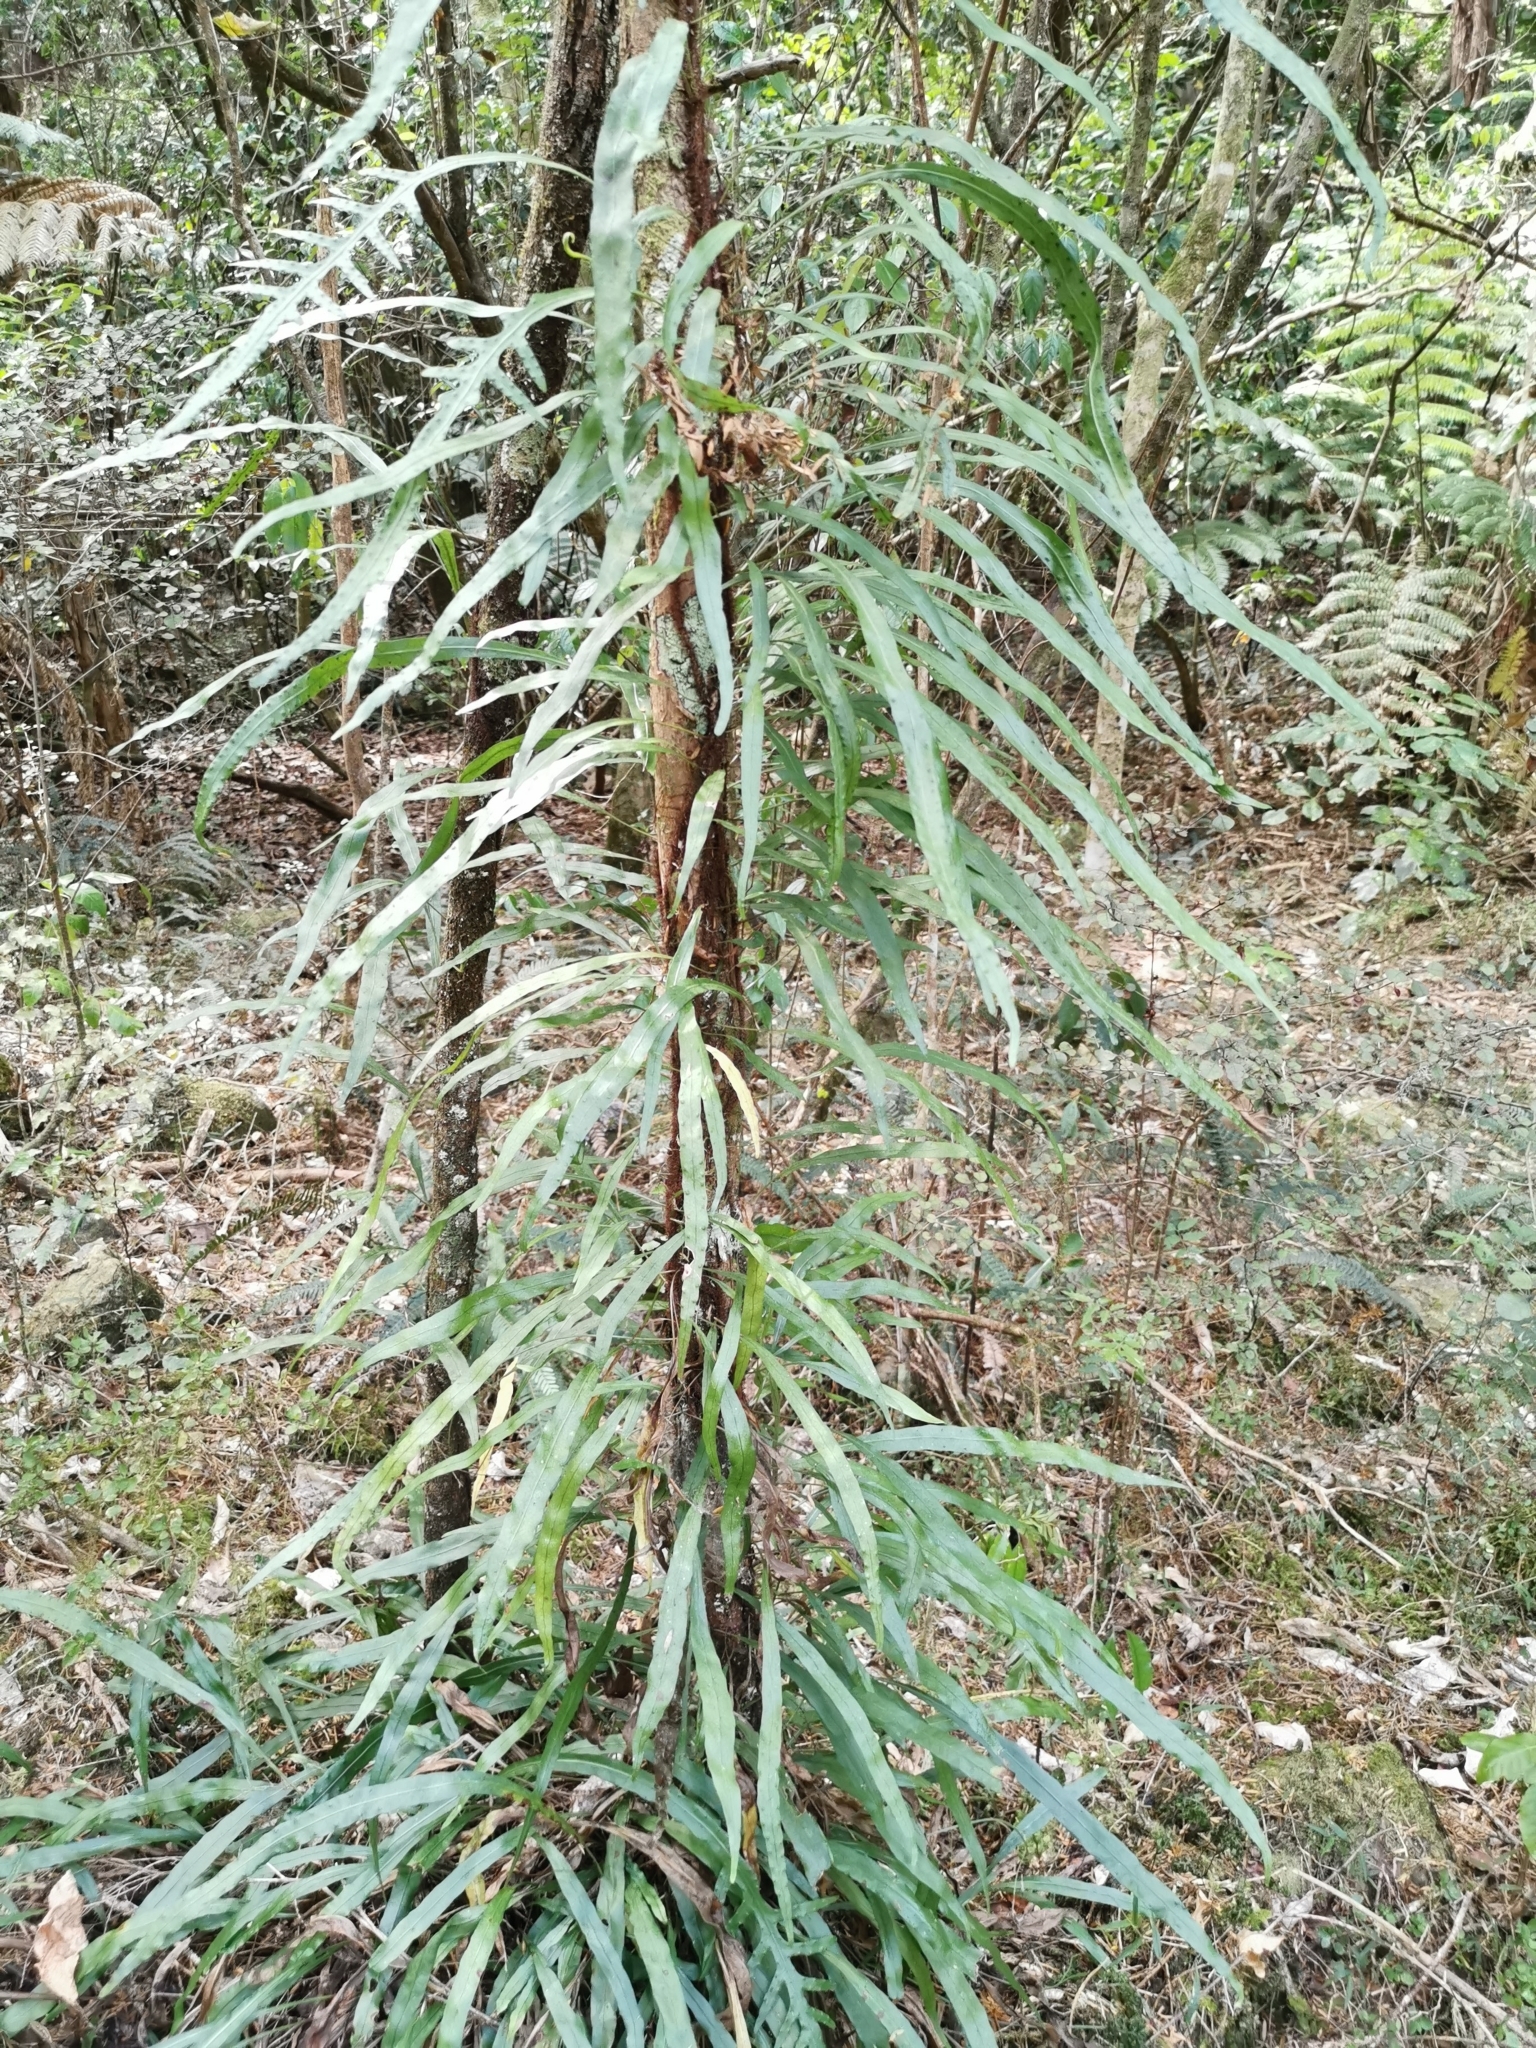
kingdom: Plantae
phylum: Tracheophyta
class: Polypodiopsida
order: Polypodiales
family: Polypodiaceae
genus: Lecanopteris
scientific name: Lecanopteris scandens
